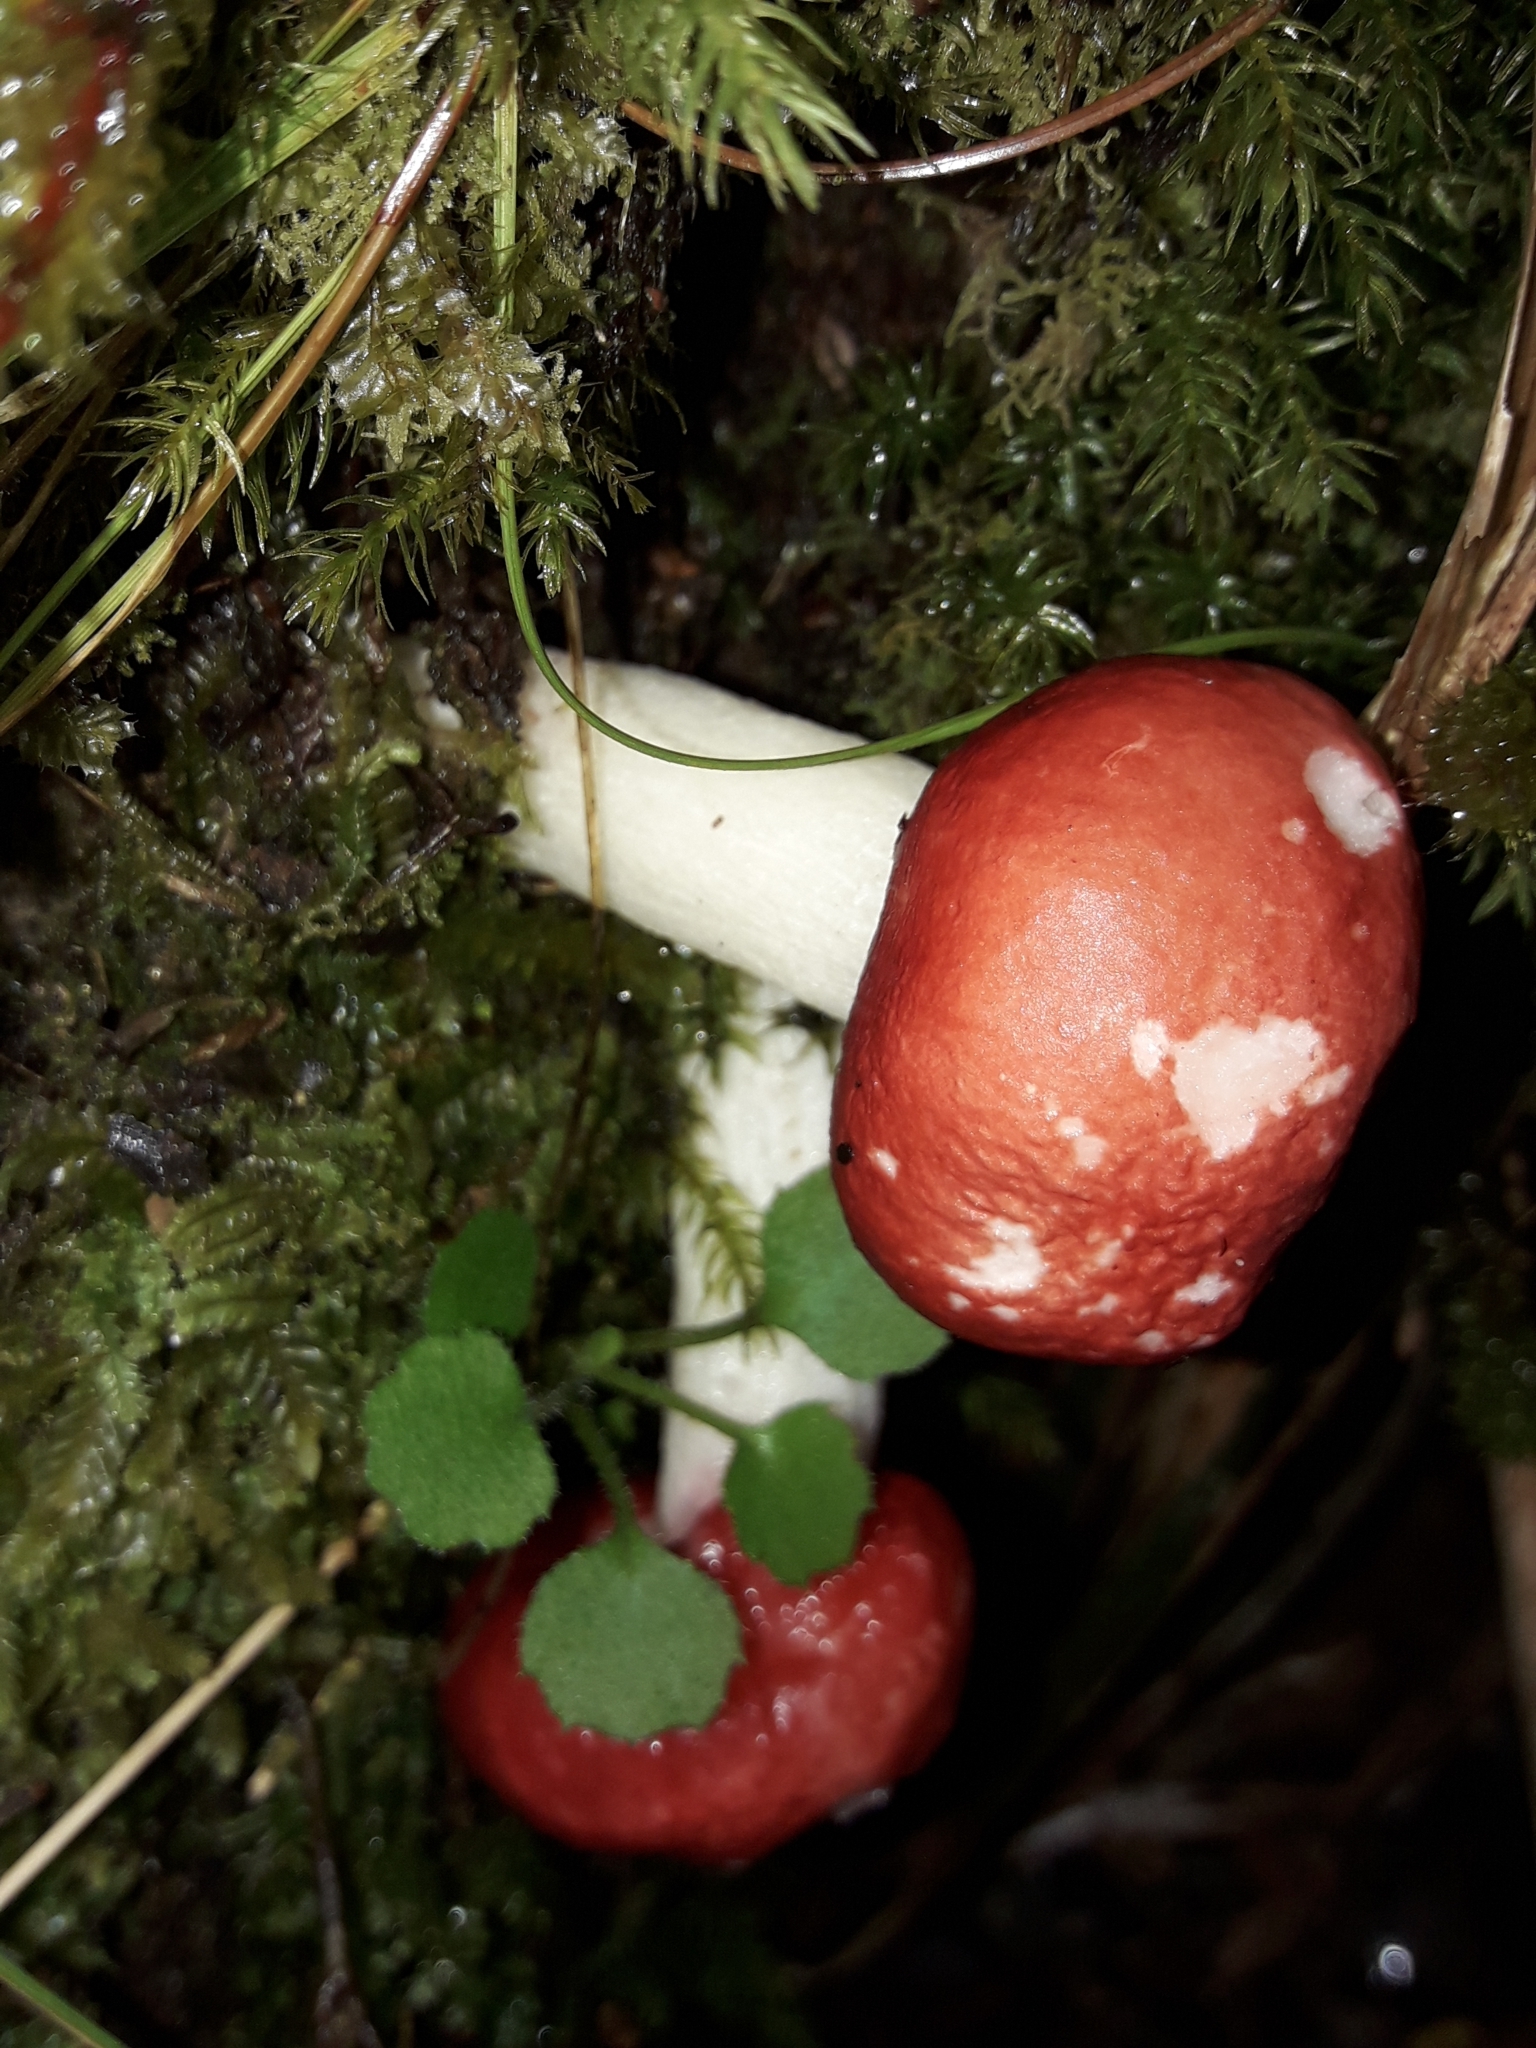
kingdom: Fungi
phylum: Basidiomycota
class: Agaricomycetes
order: Russulales
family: Russulaceae
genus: Russula
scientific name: Russula kermesina
